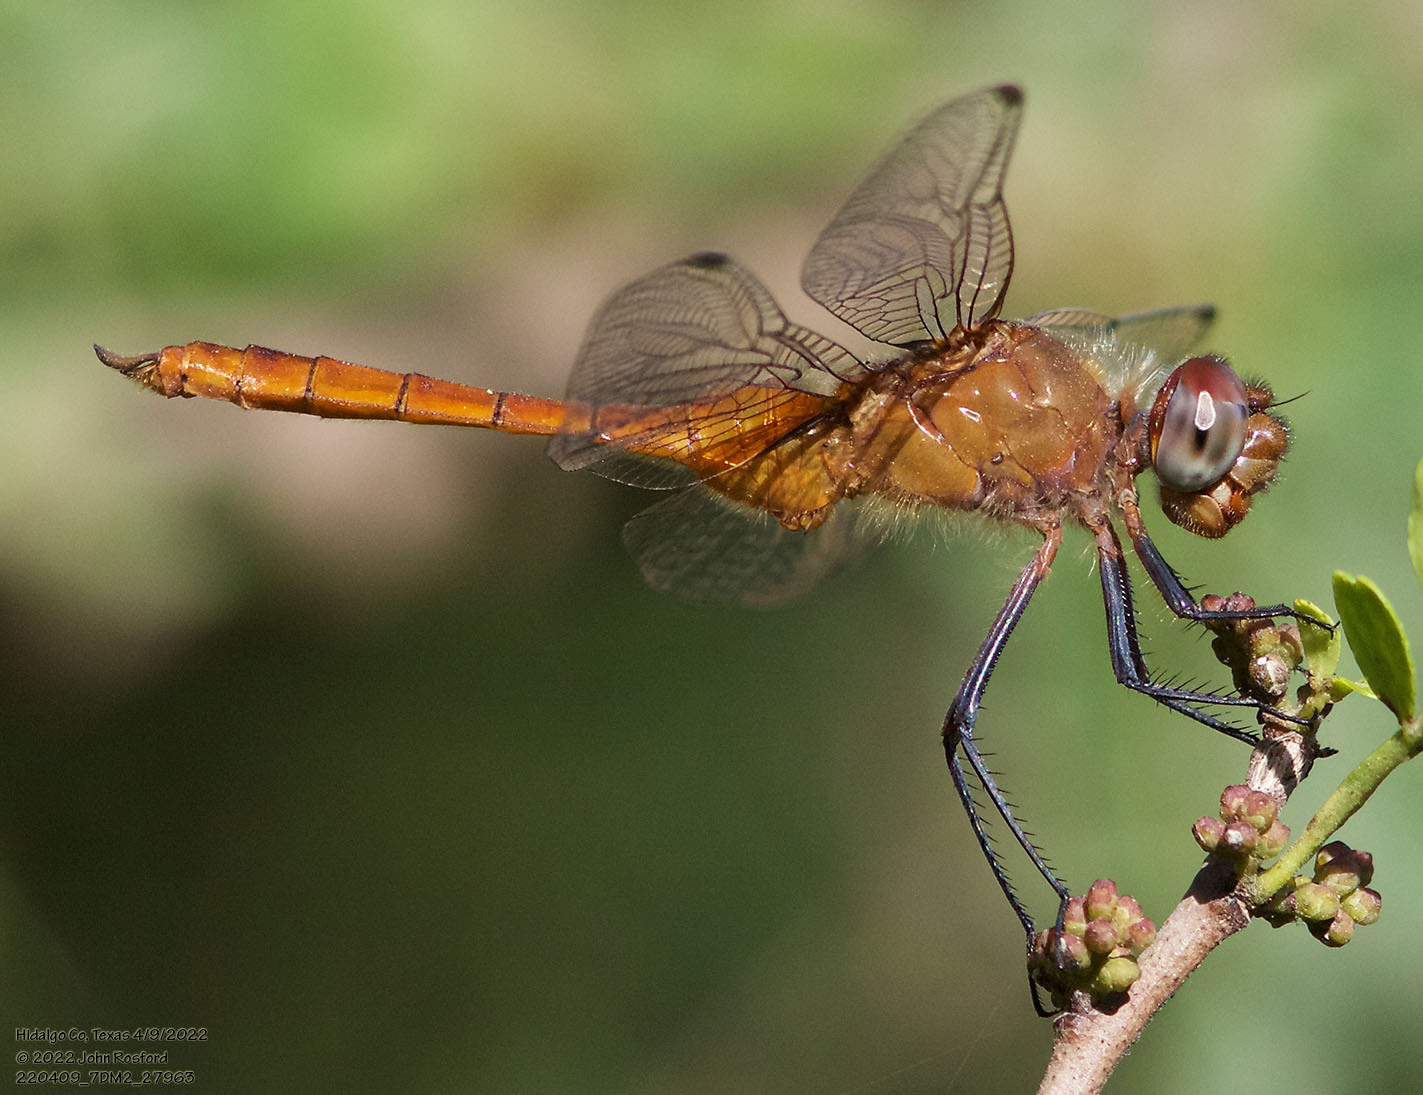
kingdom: Animalia
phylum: Arthropoda
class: Insecta
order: Odonata
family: Libellulidae
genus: Brachymesia
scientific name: Brachymesia furcata
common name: Red-taled pennant
